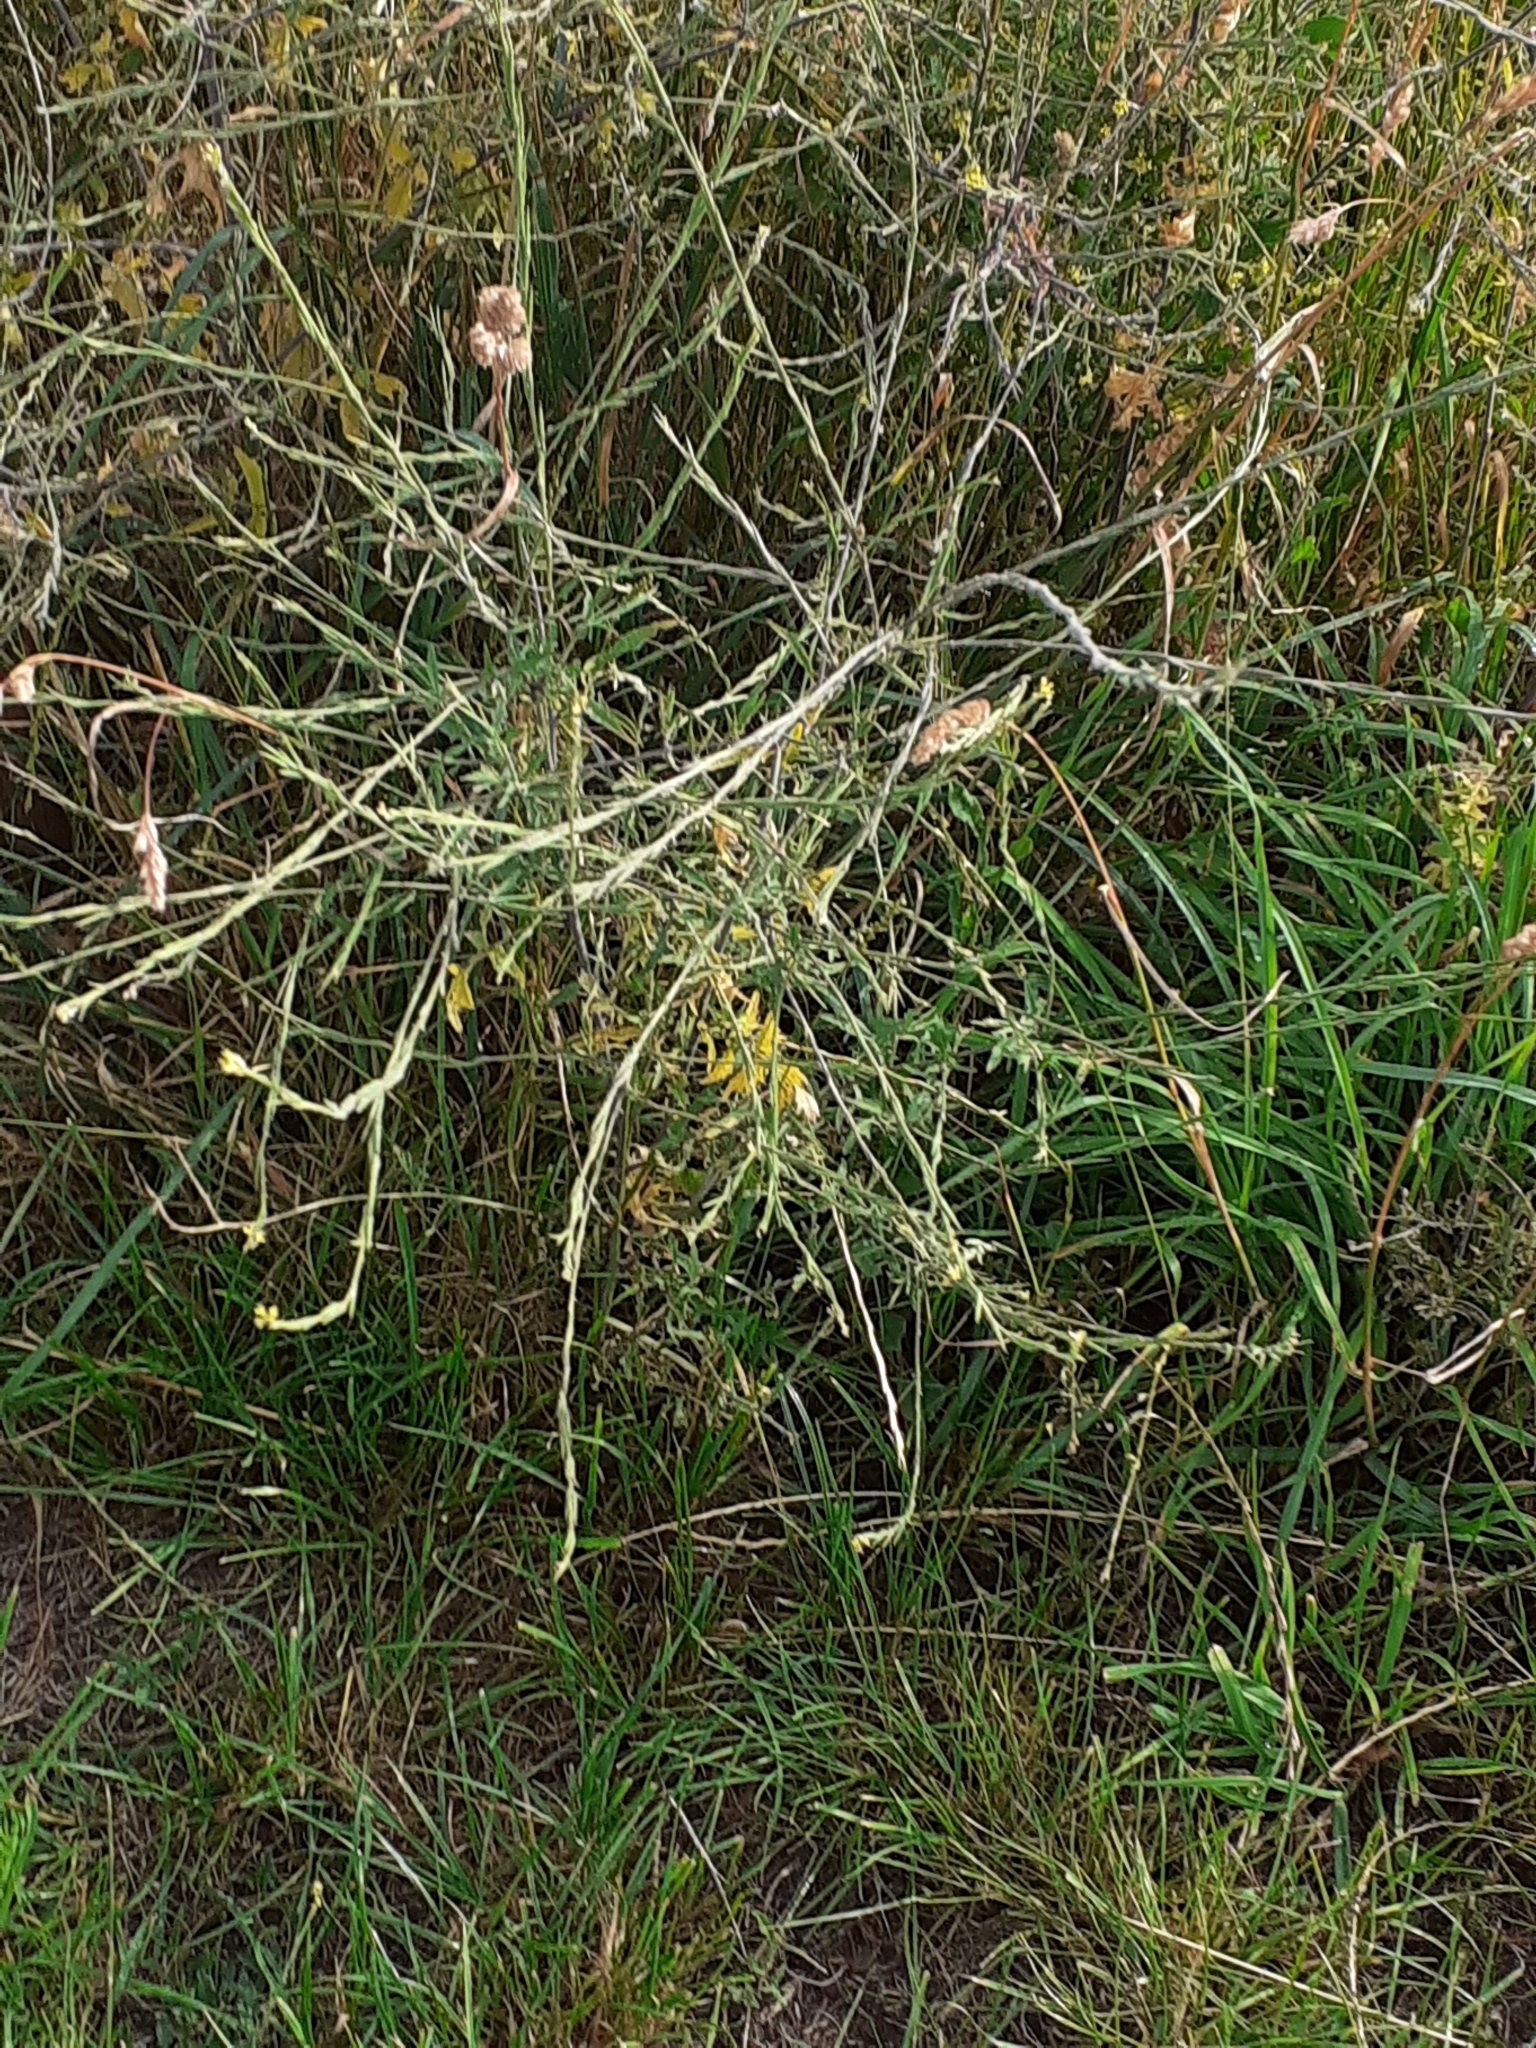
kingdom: Plantae
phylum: Tracheophyta
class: Magnoliopsida
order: Brassicales
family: Brassicaceae
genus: Sisymbrium
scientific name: Sisymbrium officinale
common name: Hedge mustard
